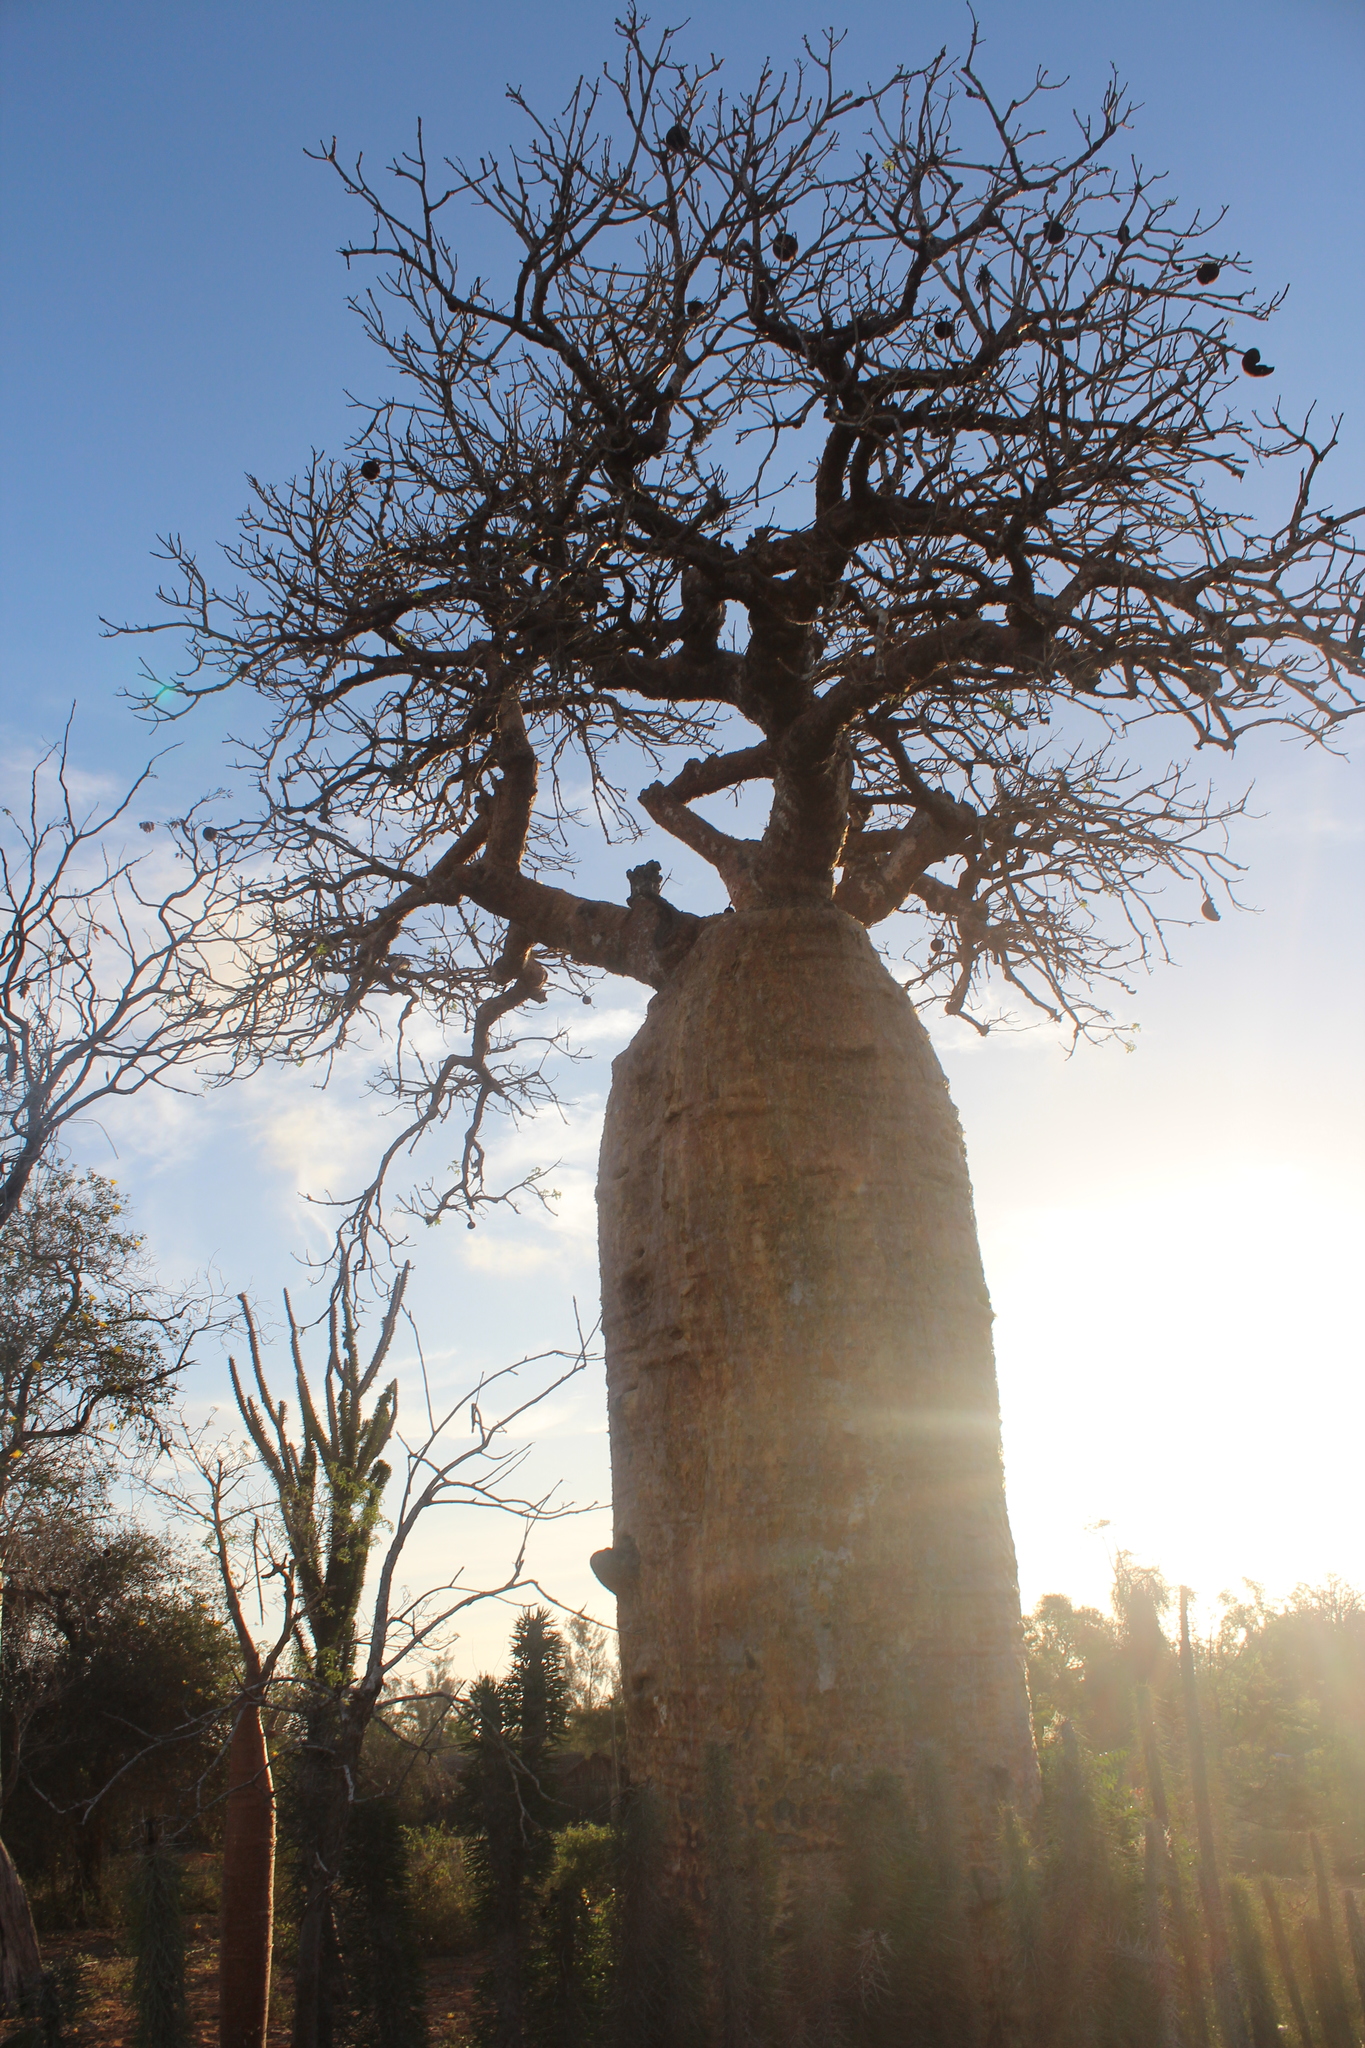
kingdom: Plantae
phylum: Tracheophyta
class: Magnoliopsida
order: Malvales
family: Malvaceae
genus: Adansonia
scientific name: Adansonia rubrostipa
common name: Fony baobab
